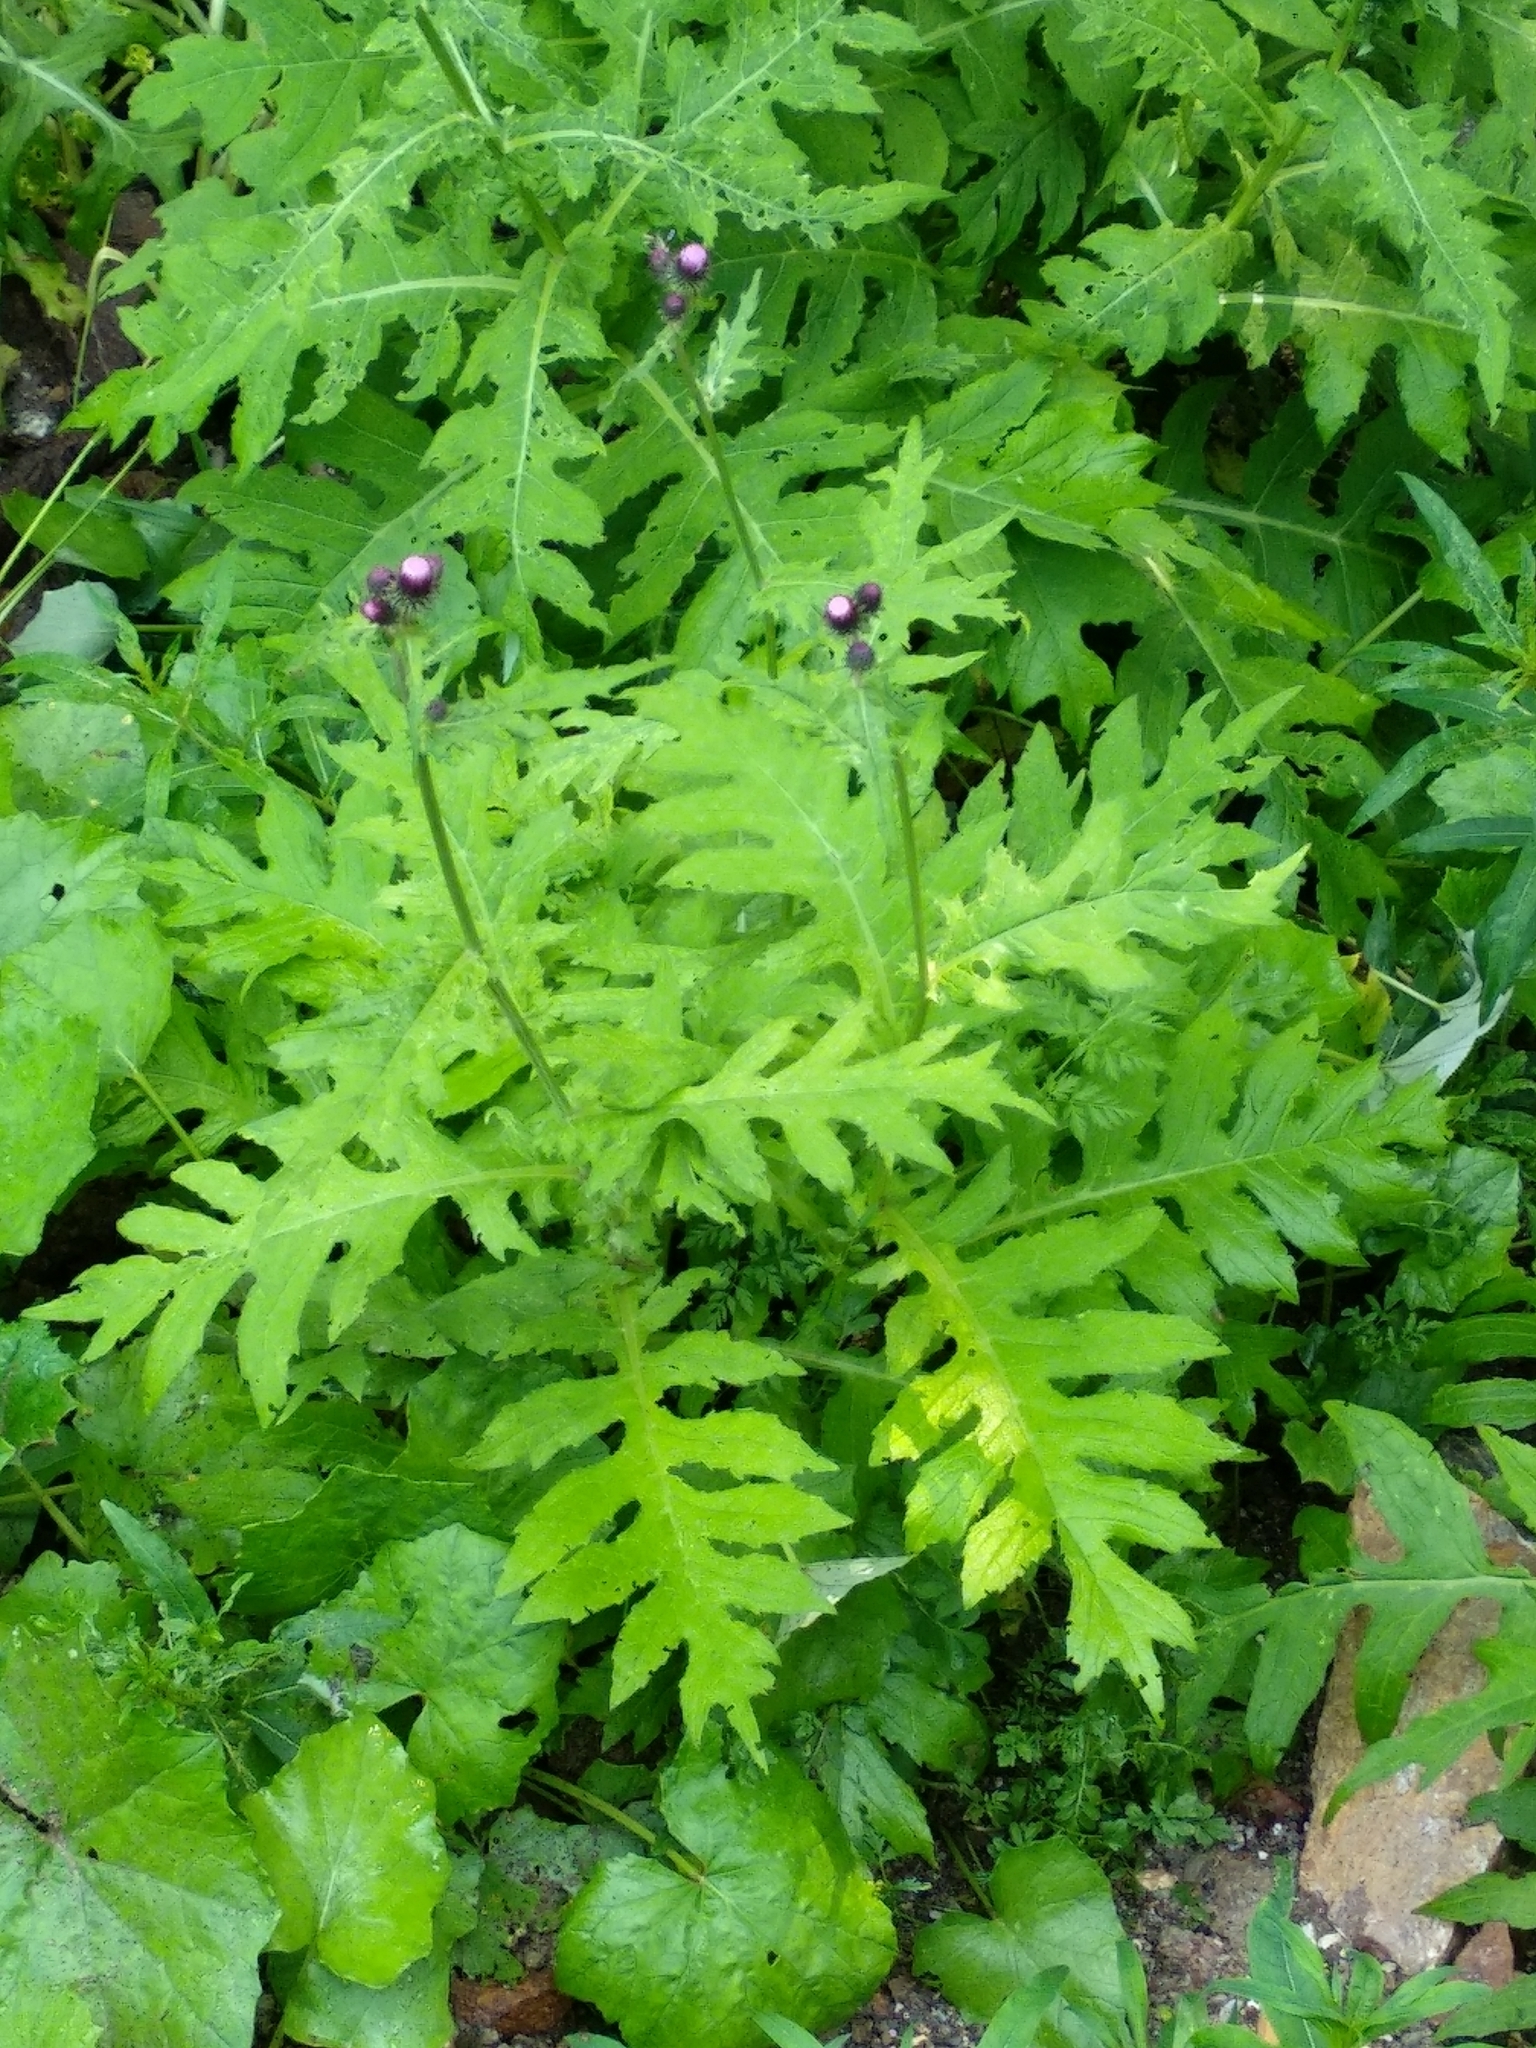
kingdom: Plantae
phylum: Tracheophyta
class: Magnoliopsida
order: Asterales
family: Asteraceae
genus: Cirsium
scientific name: Cirsium alsophilum
